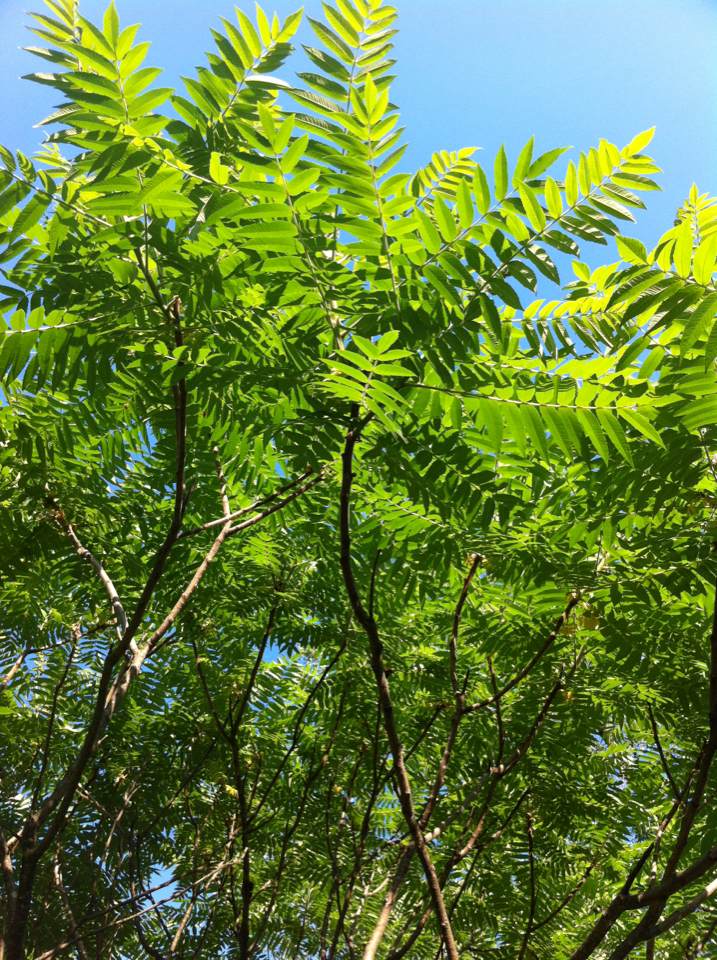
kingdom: Plantae
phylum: Tracheophyta
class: Magnoliopsida
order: Sapindales
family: Anacardiaceae
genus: Rhus
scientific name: Rhus typhina
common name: Staghorn sumac
